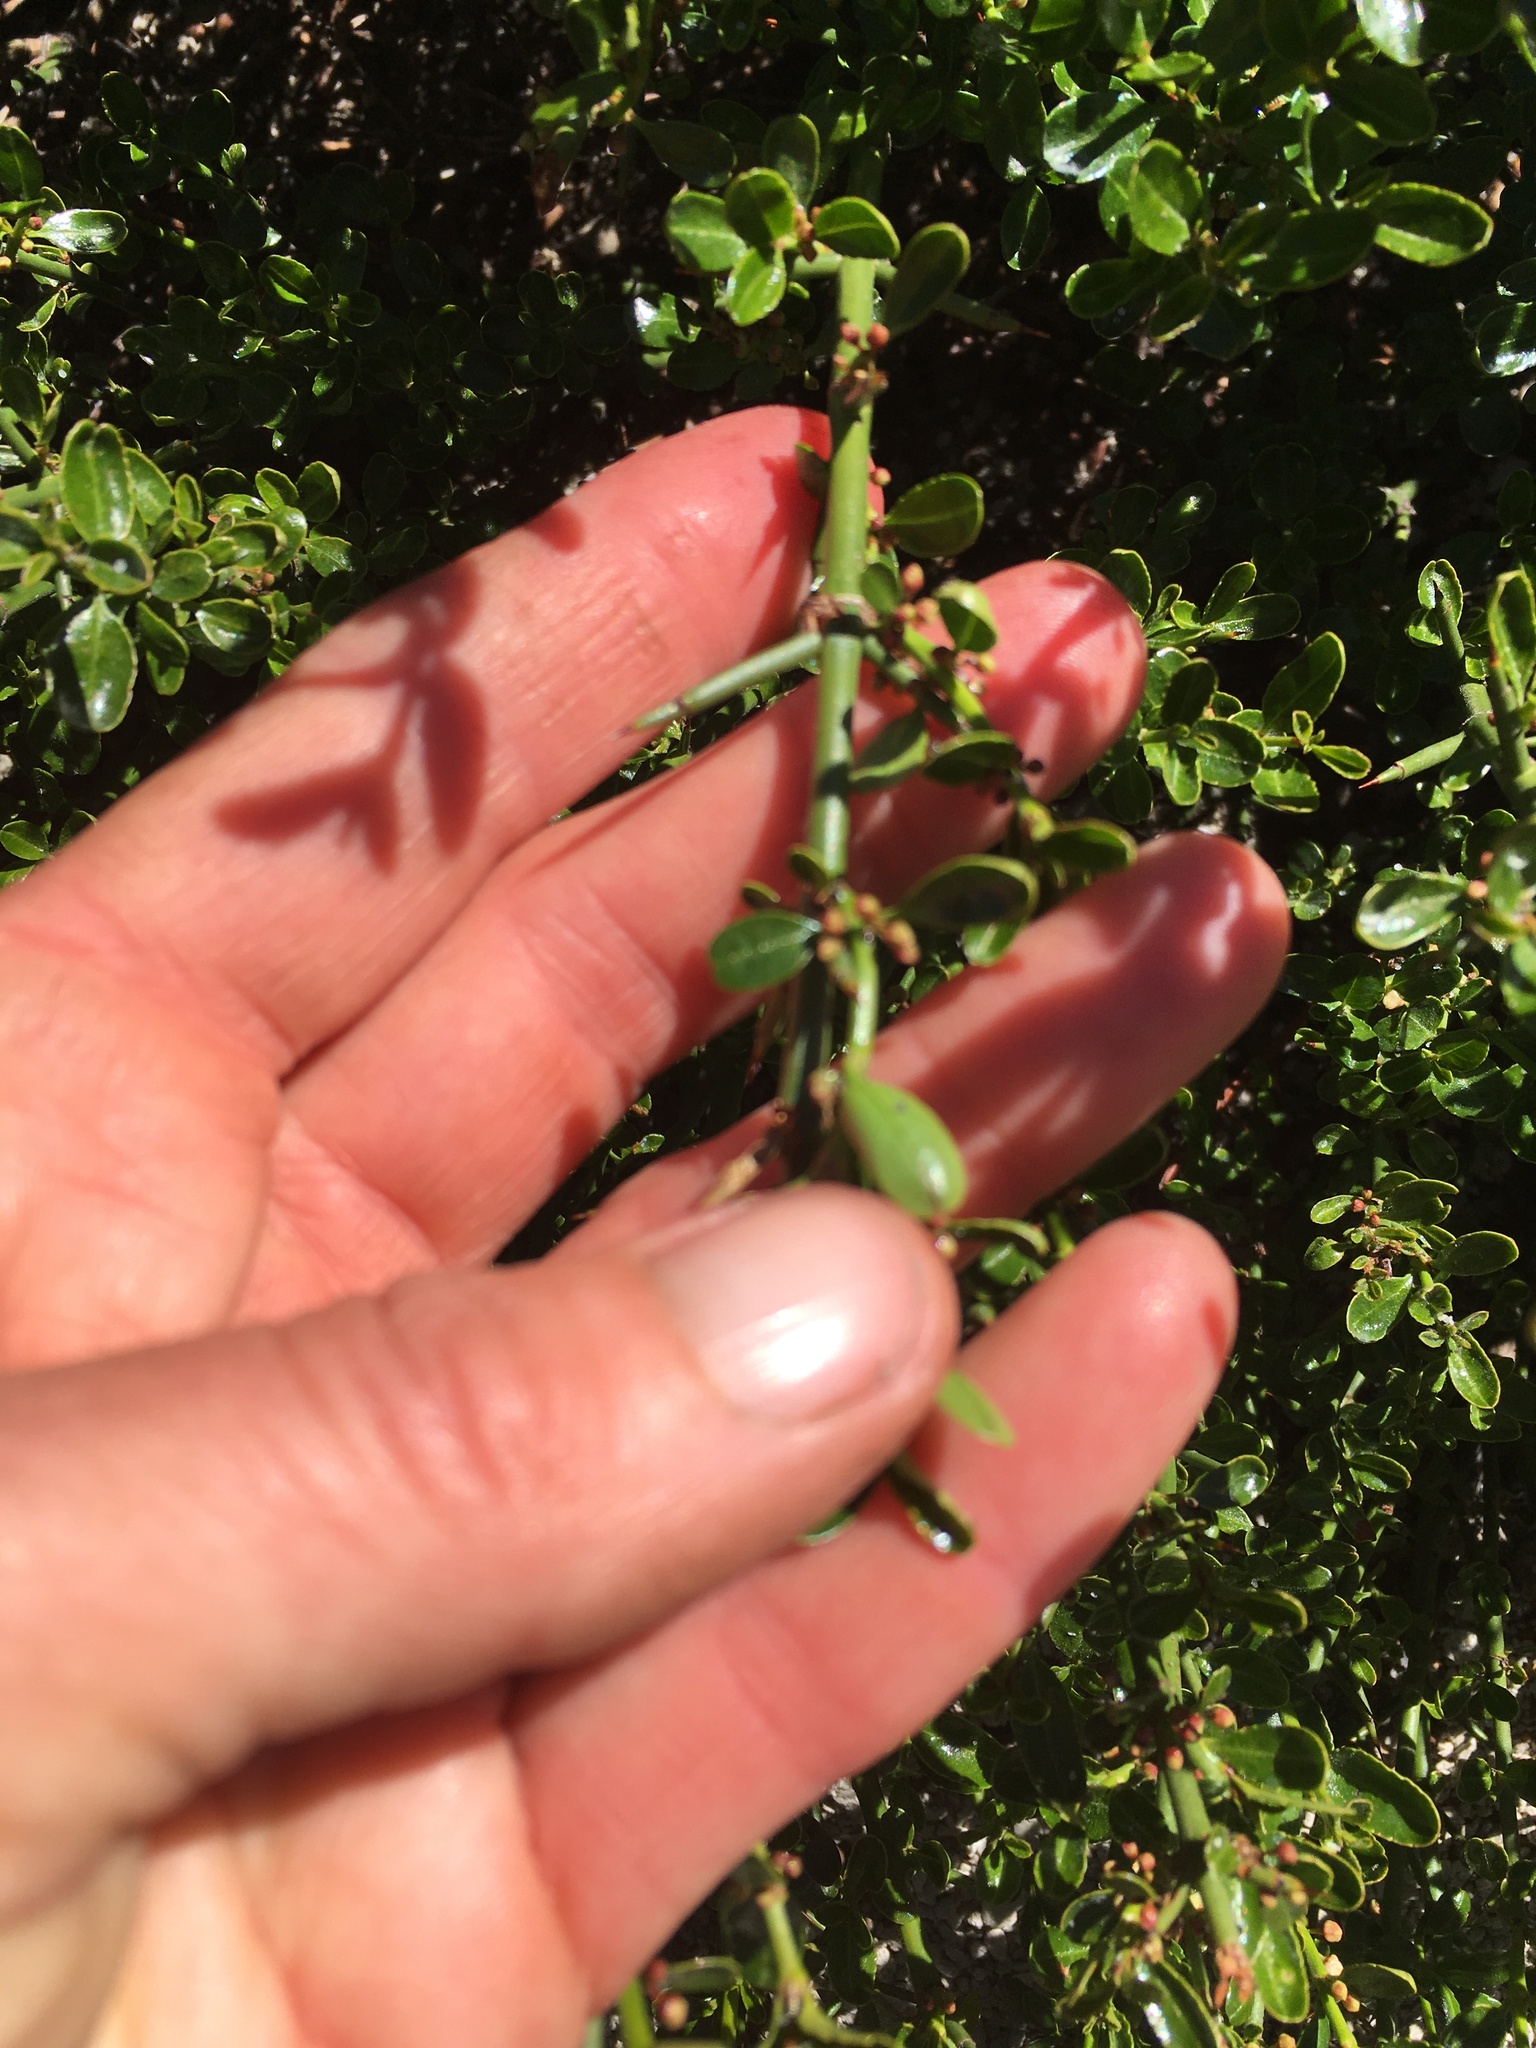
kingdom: Plantae
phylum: Tracheophyta
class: Magnoliopsida
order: Rosales
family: Rhamnaceae
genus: Discaria
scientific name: Discaria chacaye
